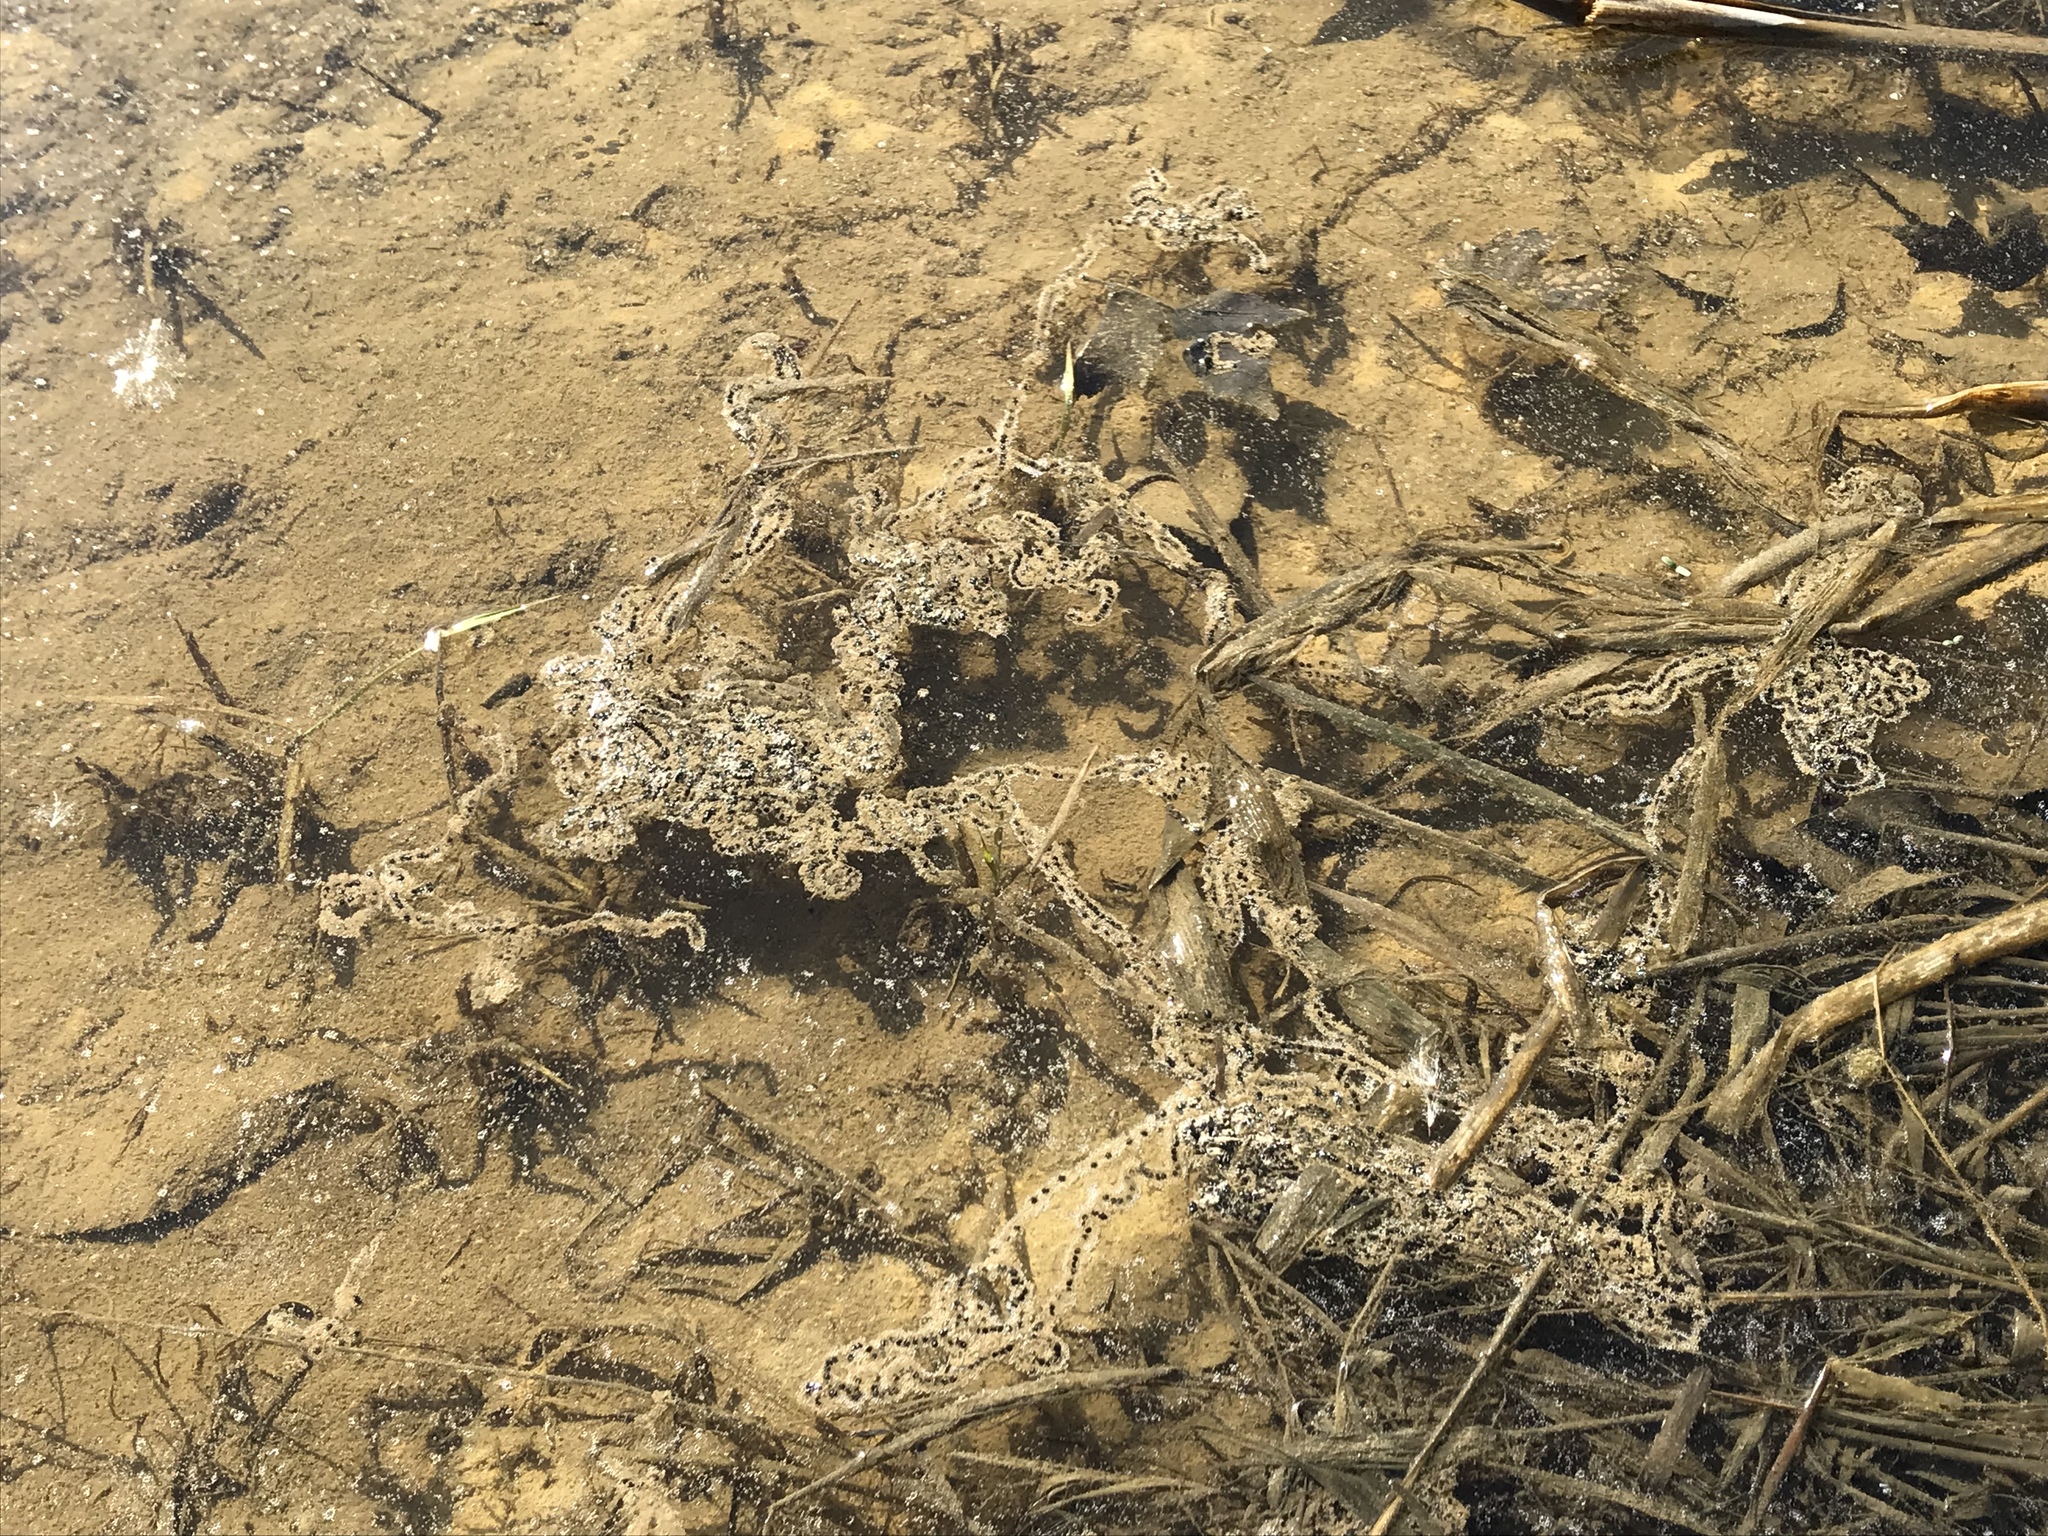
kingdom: Animalia
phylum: Chordata
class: Amphibia
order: Anura
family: Bufonidae
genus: Anaxyrus
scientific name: Anaxyrus americanus
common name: American toad
